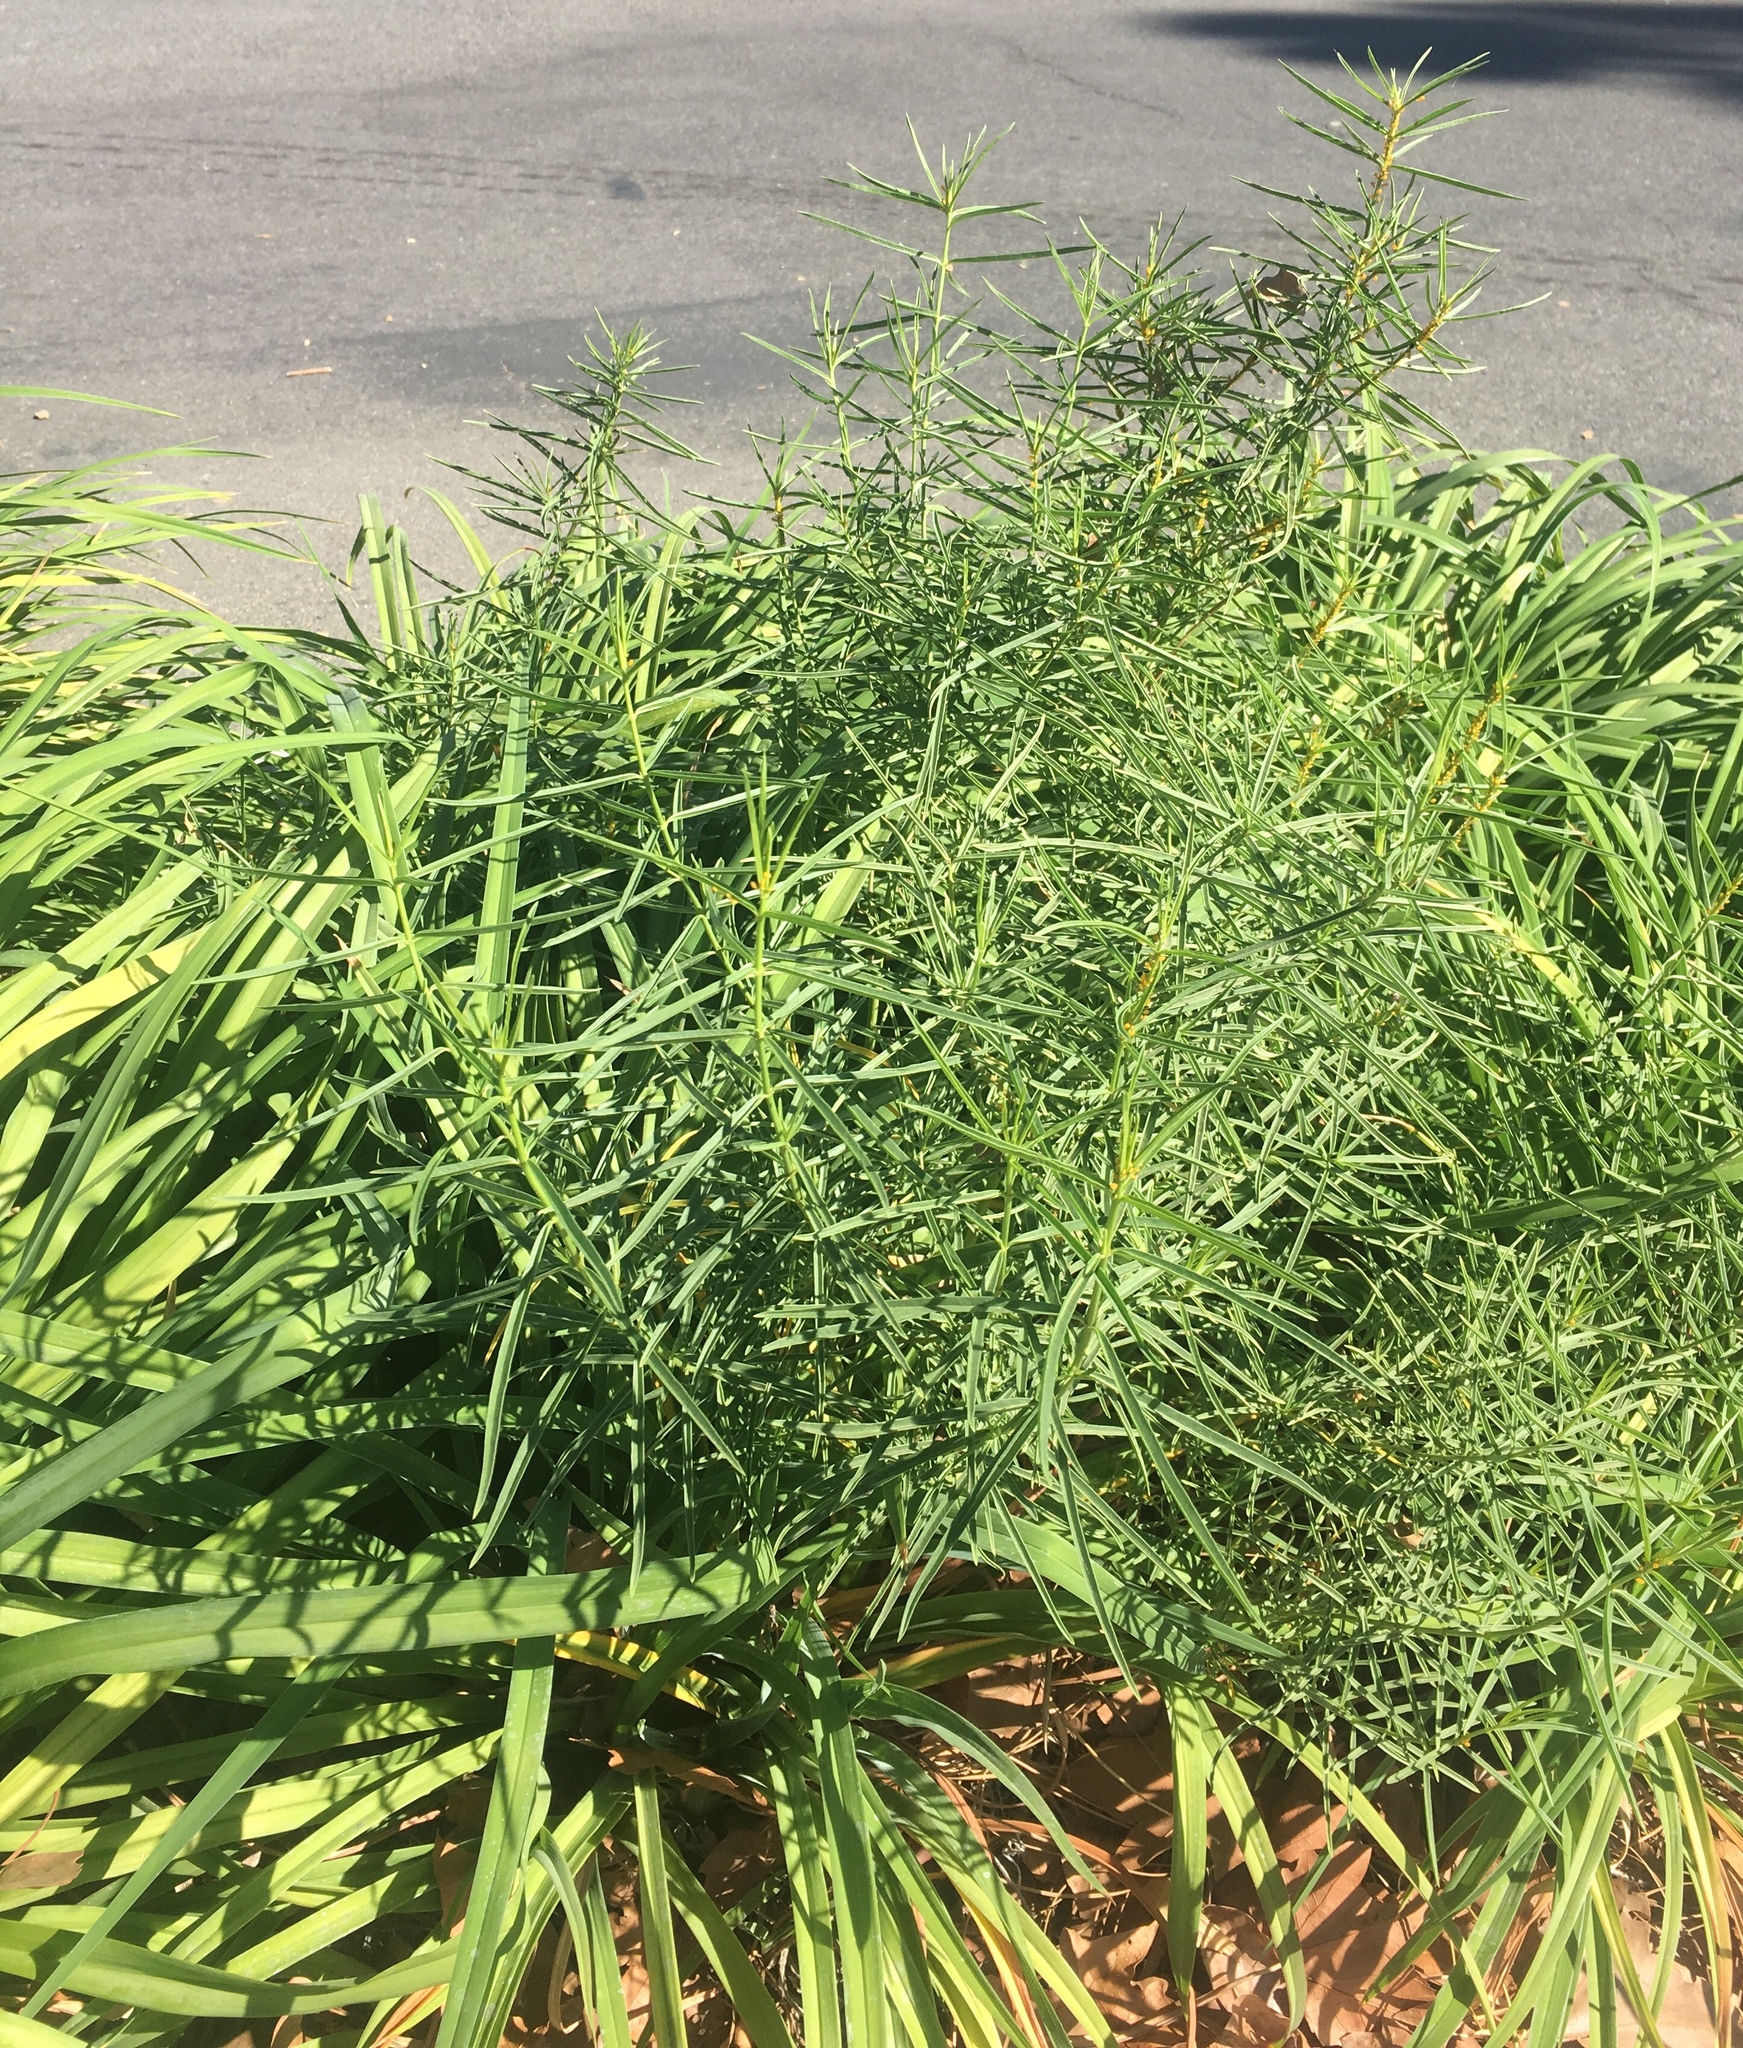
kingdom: Plantae
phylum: Tracheophyta
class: Magnoliopsida
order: Gentianales
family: Apocynaceae
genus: Asclepias
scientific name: Asclepias fascicularis
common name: Mexican milkweed
